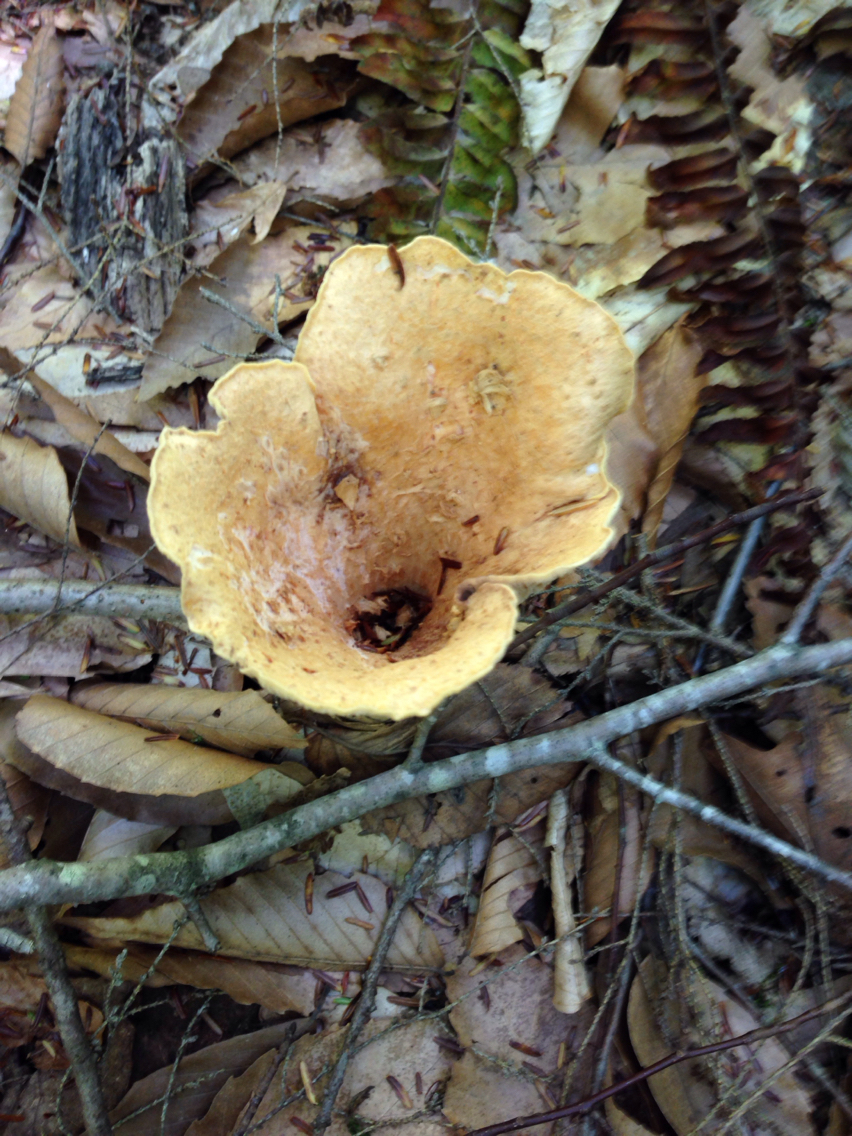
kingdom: Fungi
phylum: Basidiomycota
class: Agaricomycetes
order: Gomphales
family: Gomphaceae
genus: Turbinellus
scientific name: Turbinellus floccosus
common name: Scaly chanterelle
